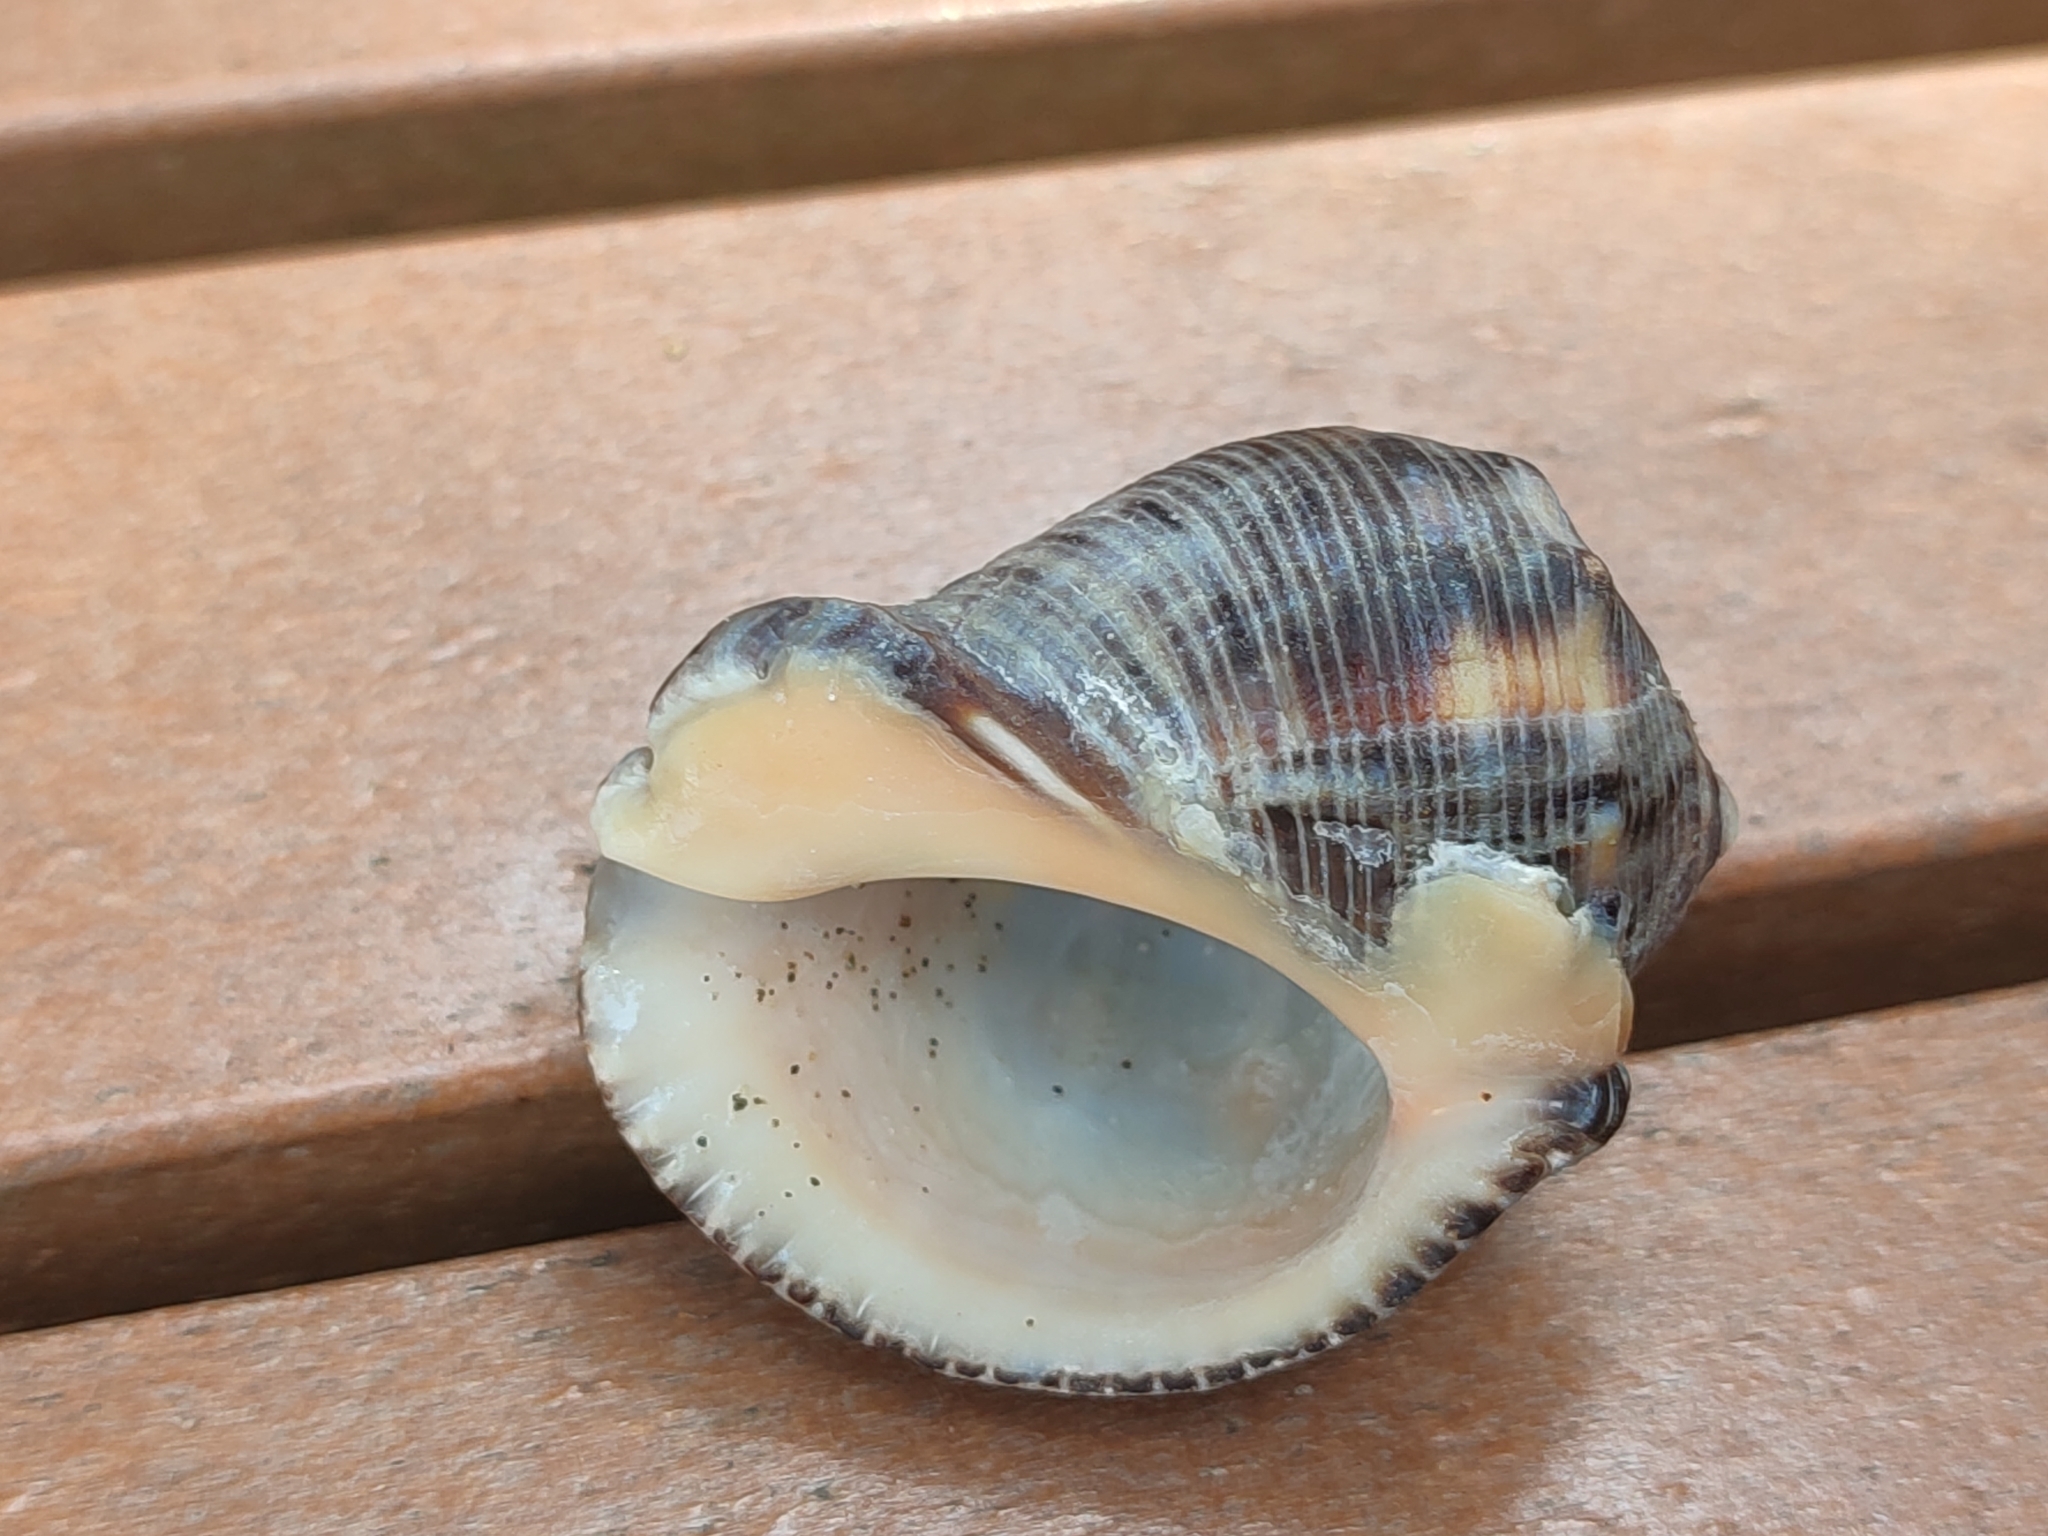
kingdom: Animalia
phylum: Mollusca
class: Gastropoda
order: Neogastropoda
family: Muricidae
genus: Purpura
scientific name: Purpura bufo
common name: Toad purple
